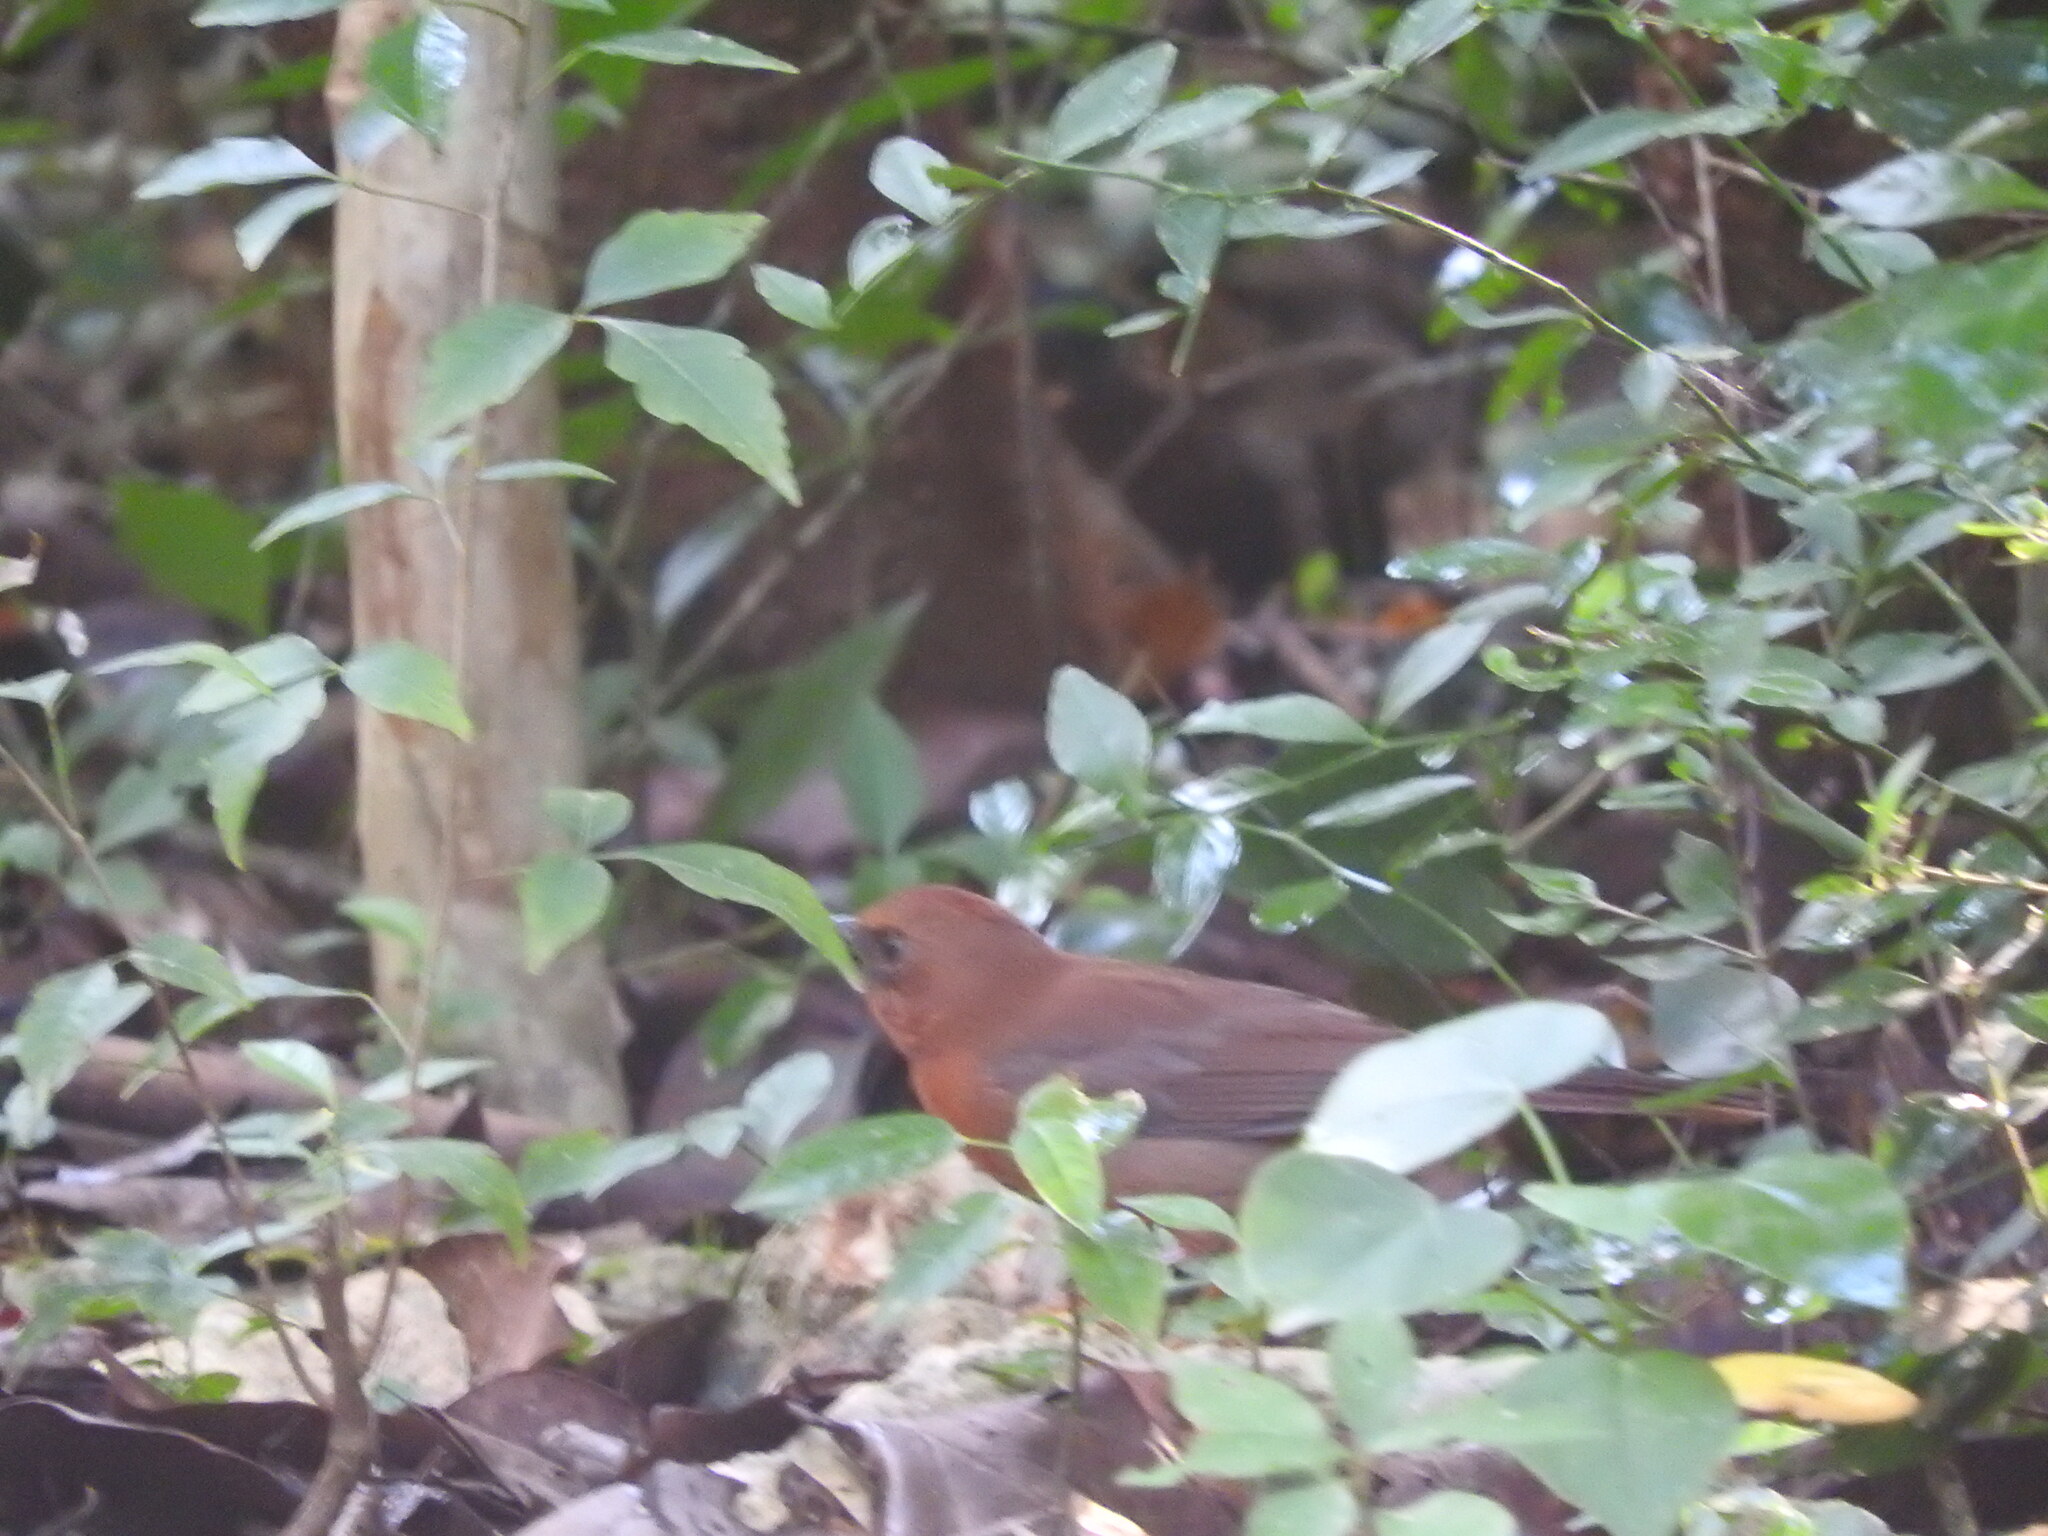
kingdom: Animalia
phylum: Chordata
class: Aves
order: Passeriformes
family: Cardinalidae
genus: Habia
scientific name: Habia fuscicauda
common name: Red-throated ant-tanager
